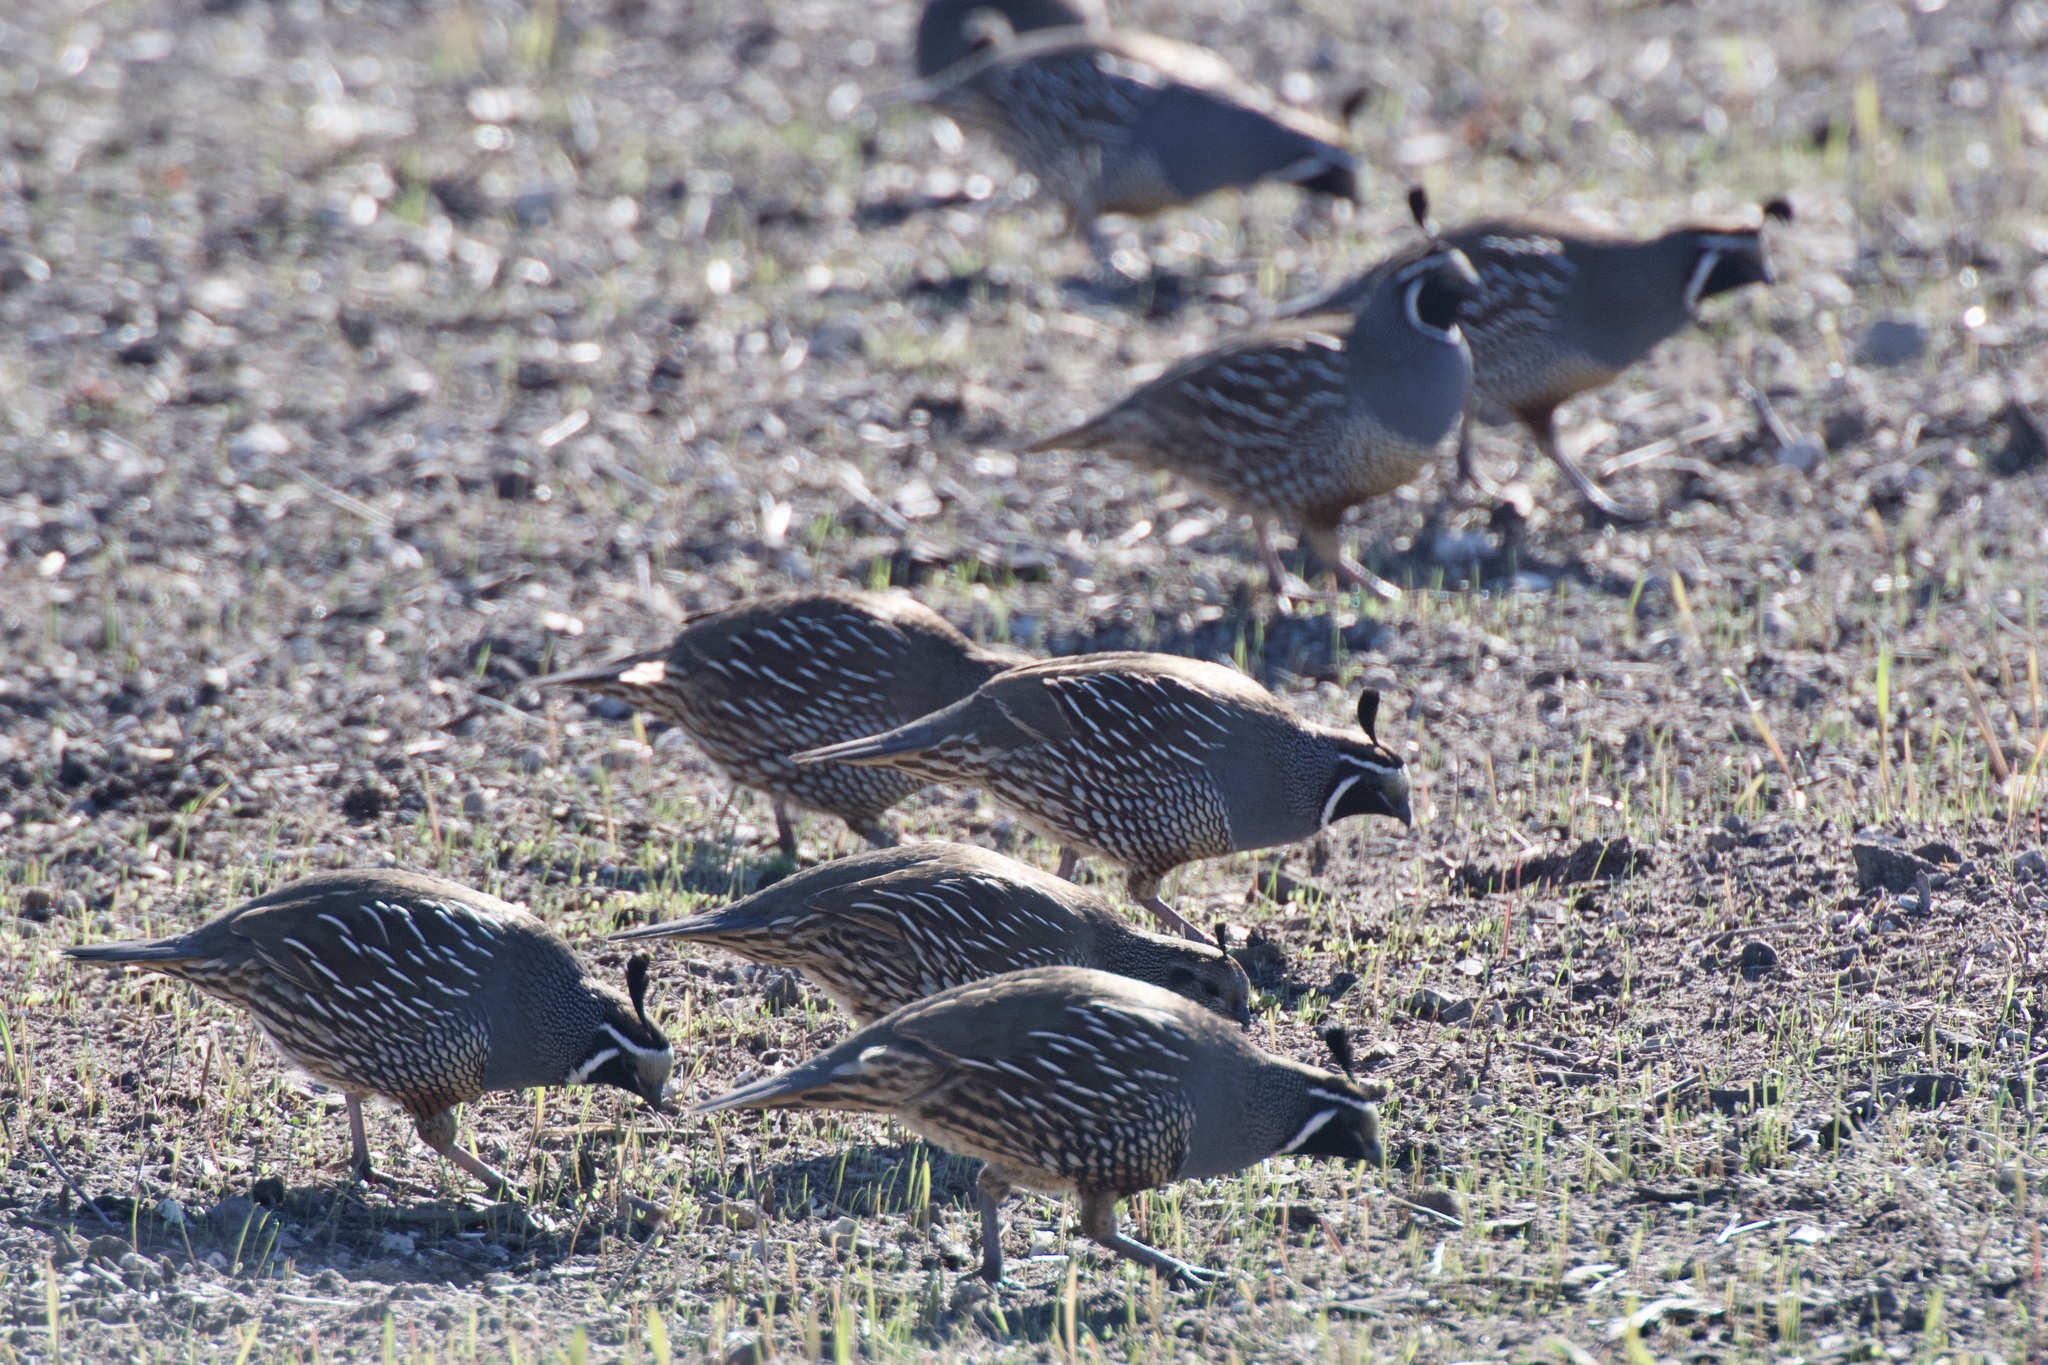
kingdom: Animalia
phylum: Chordata
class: Aves
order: Galliformes
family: Odontophoridae
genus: Callipepla
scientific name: Callipepla californica
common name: California quail
